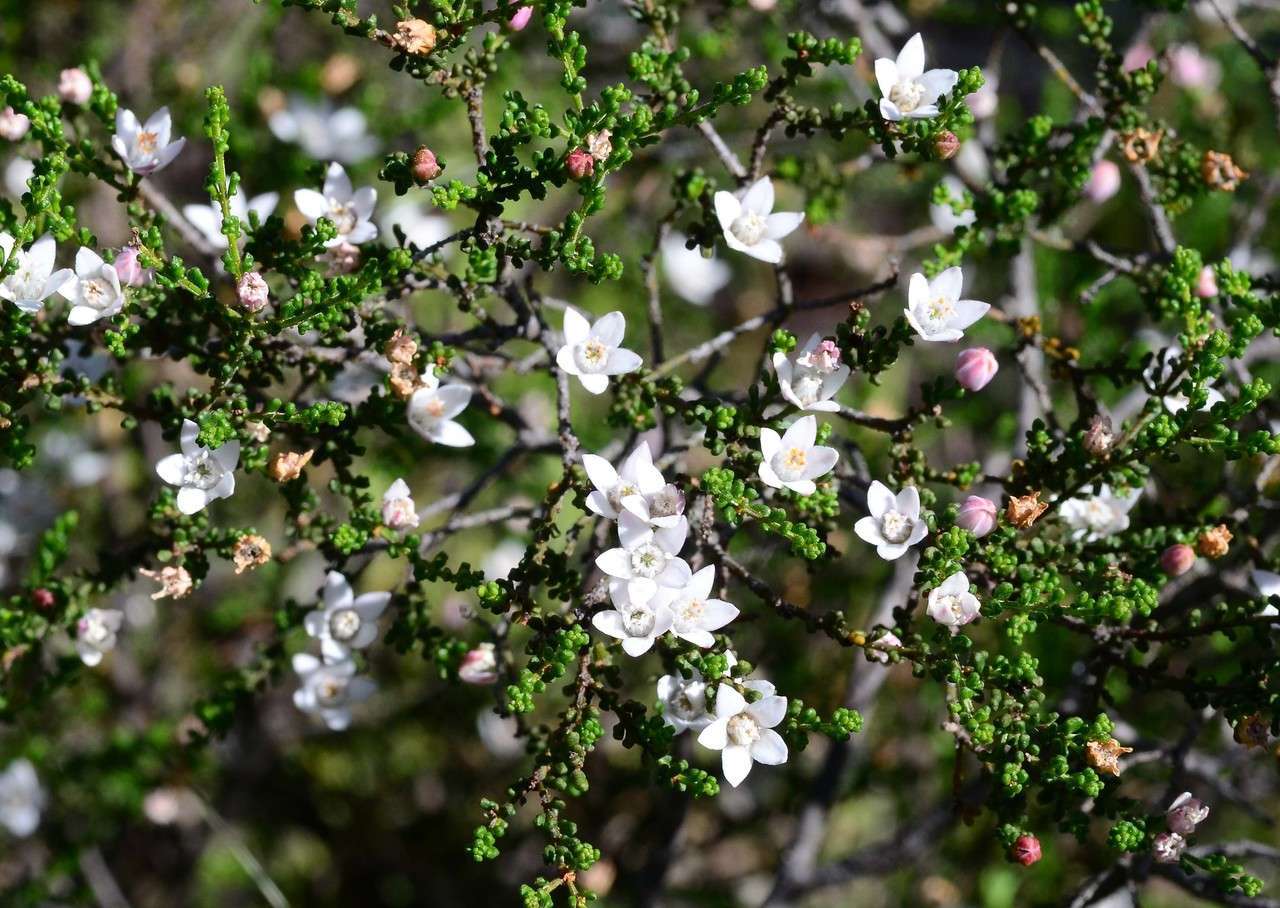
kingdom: Plantae
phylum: Tracheophyta
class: Magnoliopsida
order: Sapindales
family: Rutaceae
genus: Philotheca
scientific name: Philotheca angustifolia
